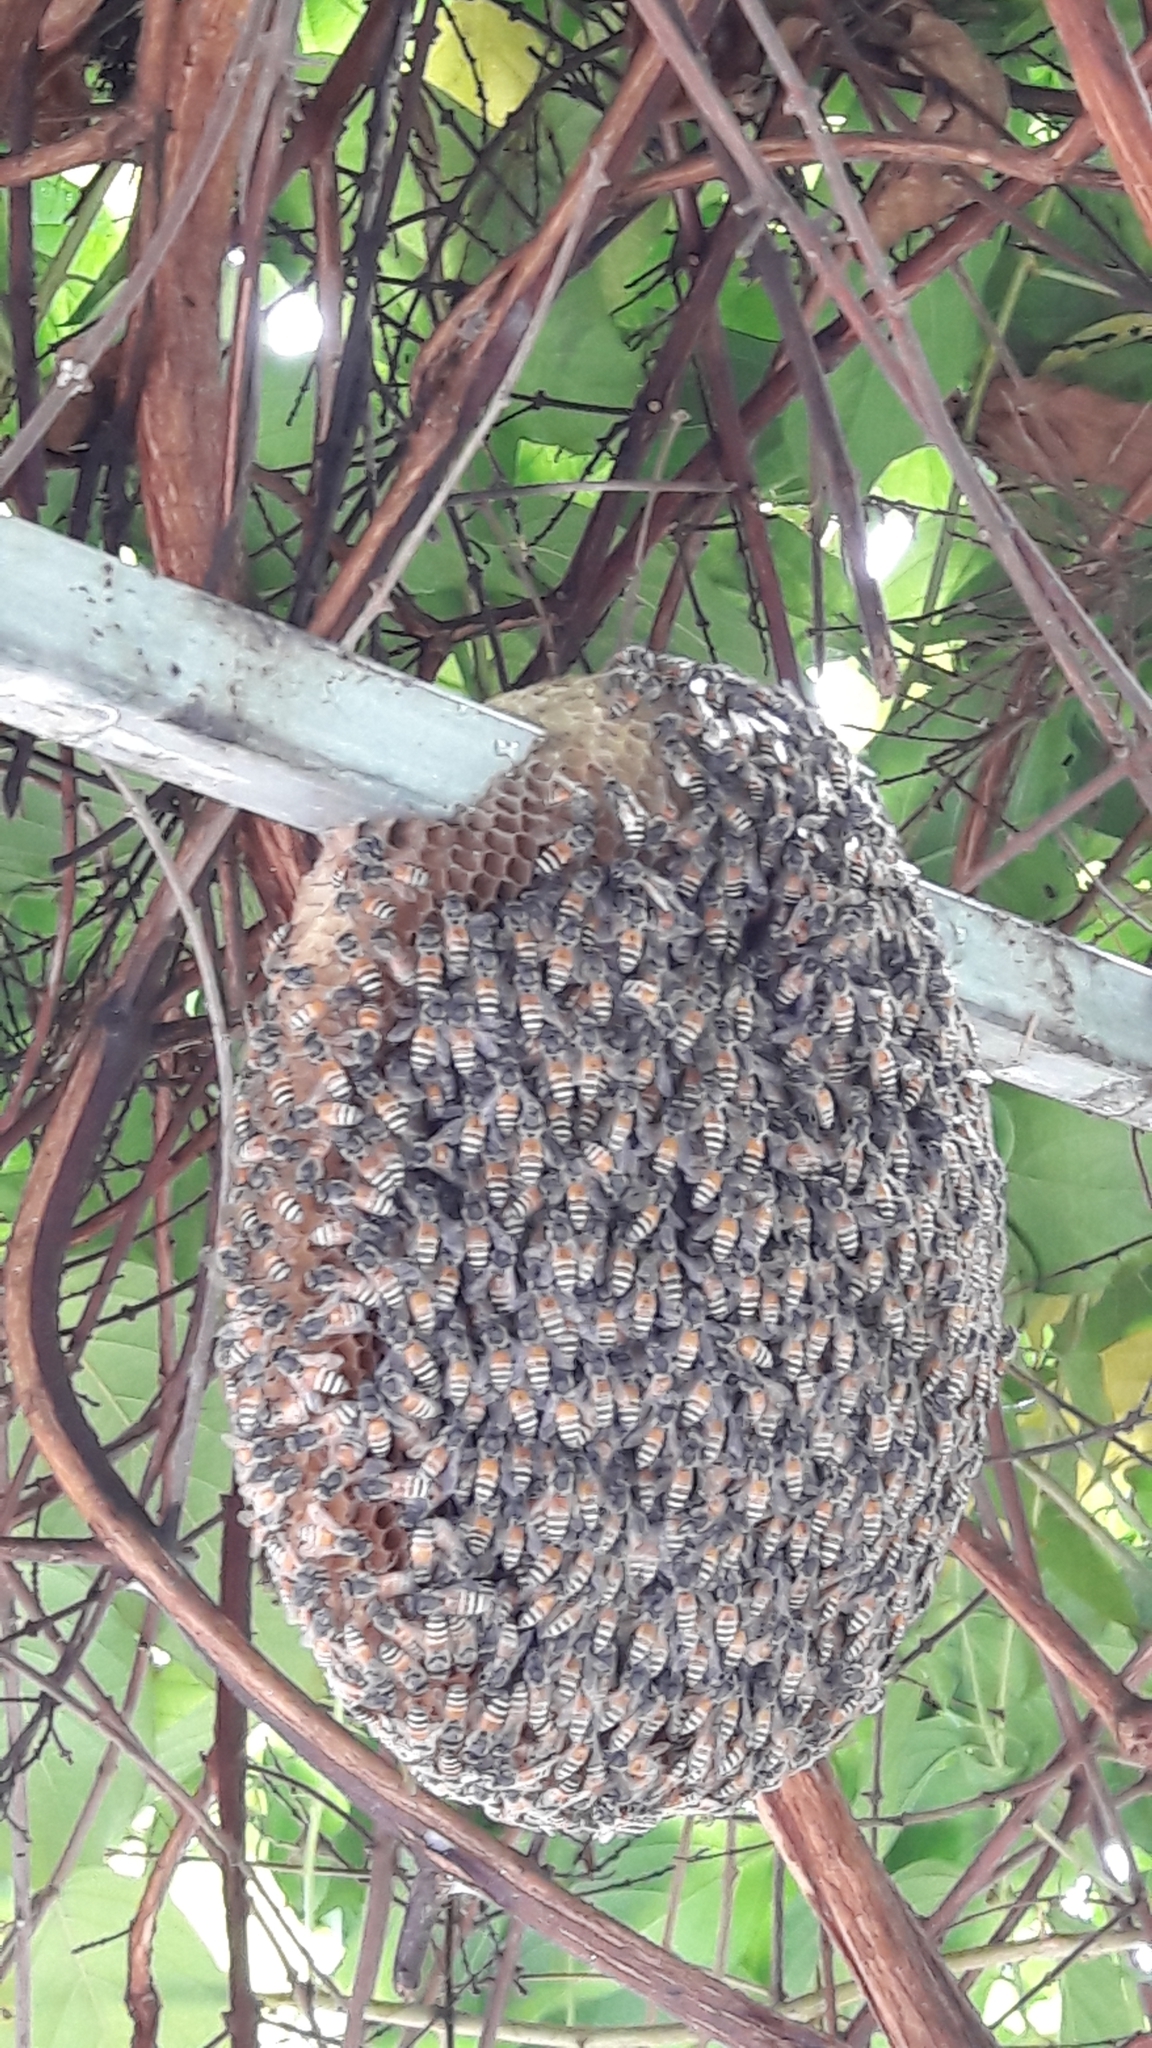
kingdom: Animalia
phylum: Arthropoda
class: Insecta
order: Hymenoptera
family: Apidae
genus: Apis
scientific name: Apis florea
